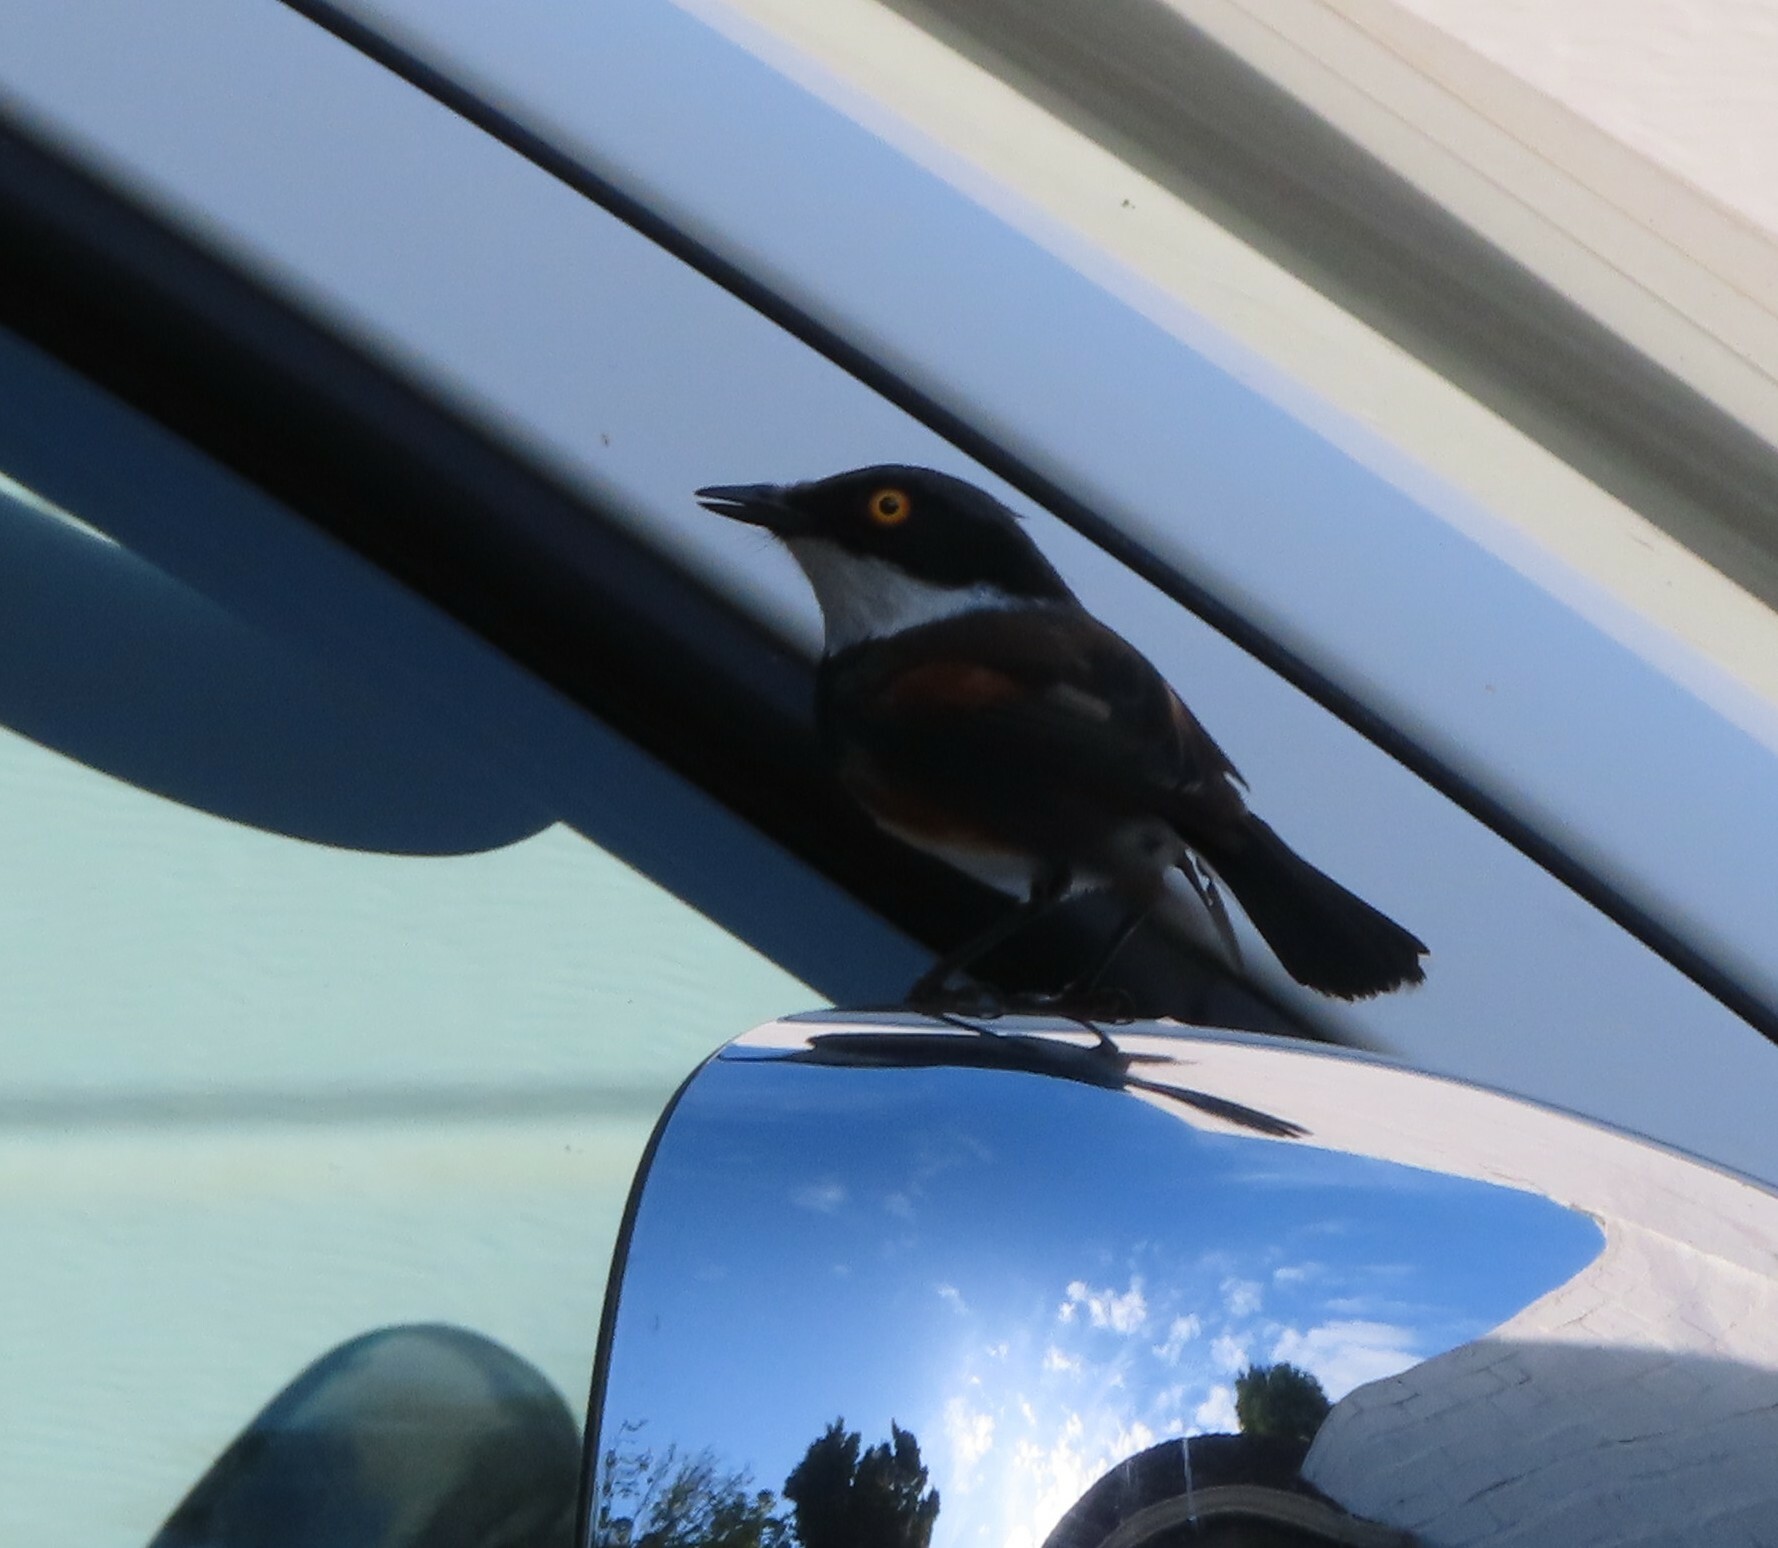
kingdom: Animalia
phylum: Chordata
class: Aves
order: Passeriformes
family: Platysteiridae
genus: Batis
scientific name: Batis capensis
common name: Cape batis
